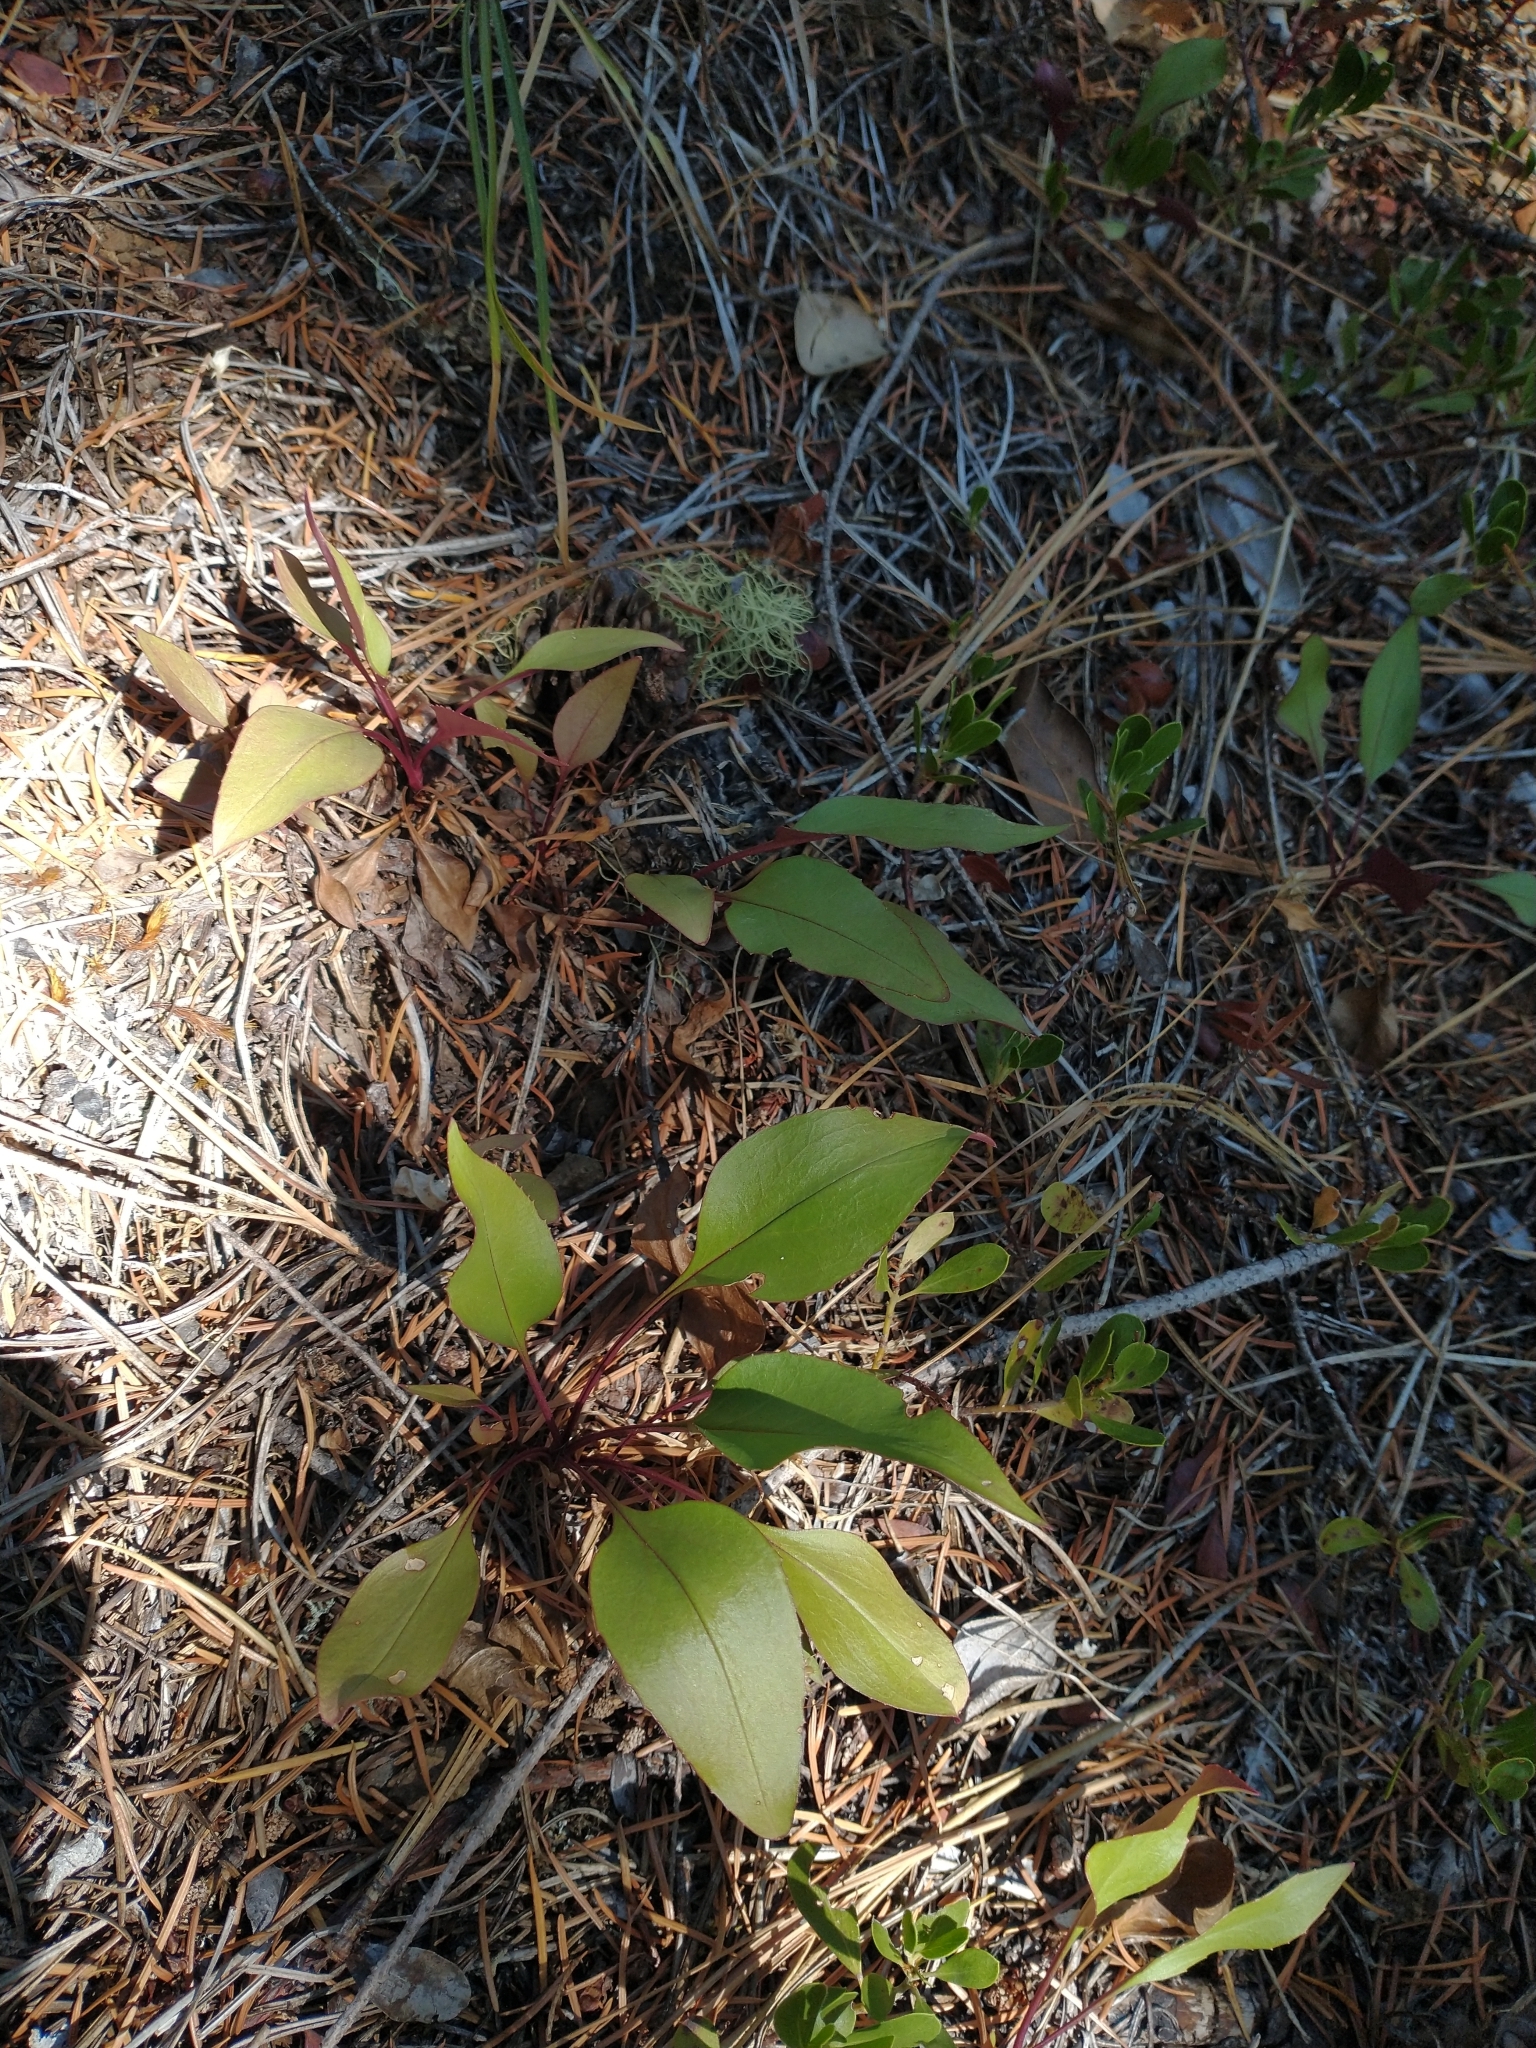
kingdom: Plantae
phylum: Tracheophyta
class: Magnoliopsida
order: Lamiales
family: Plantaginaceae
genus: Penstemon
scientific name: Penstemon subserratus
